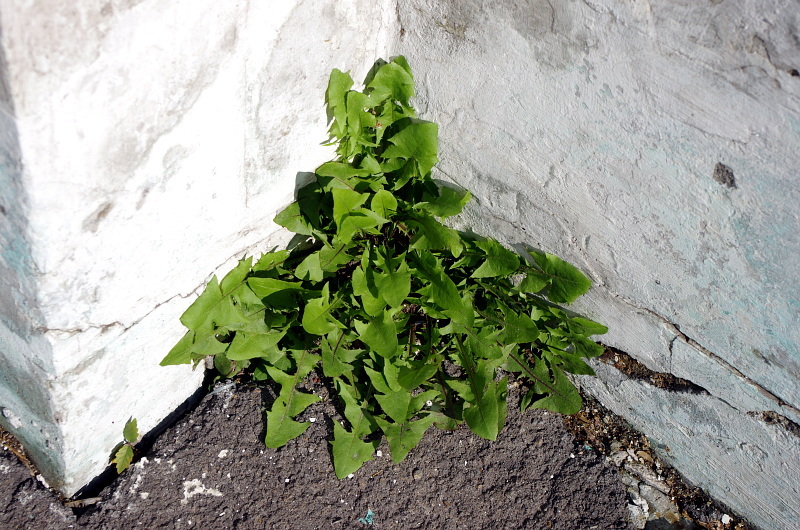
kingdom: Plantae
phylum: Tracheophyta
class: Magnoliopsida
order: Asterales
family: Asteraceae
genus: Taraxacum
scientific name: Taraxacum officinale
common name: Common dandelion
